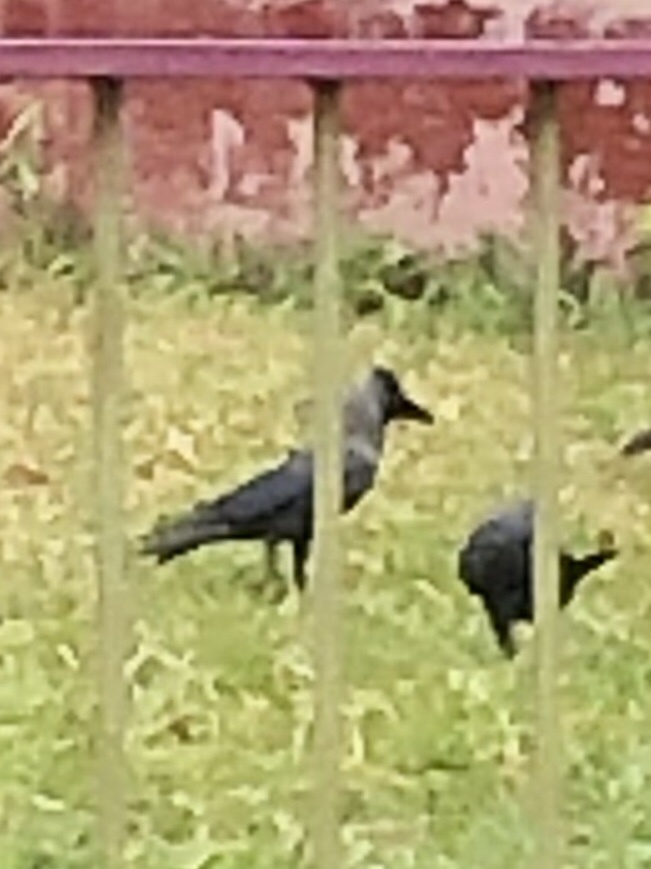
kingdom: Animalia
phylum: Chordata
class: Aves
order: Passeriformes
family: Corvidae
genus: Corvus
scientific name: Corvus splendens
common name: House crow
